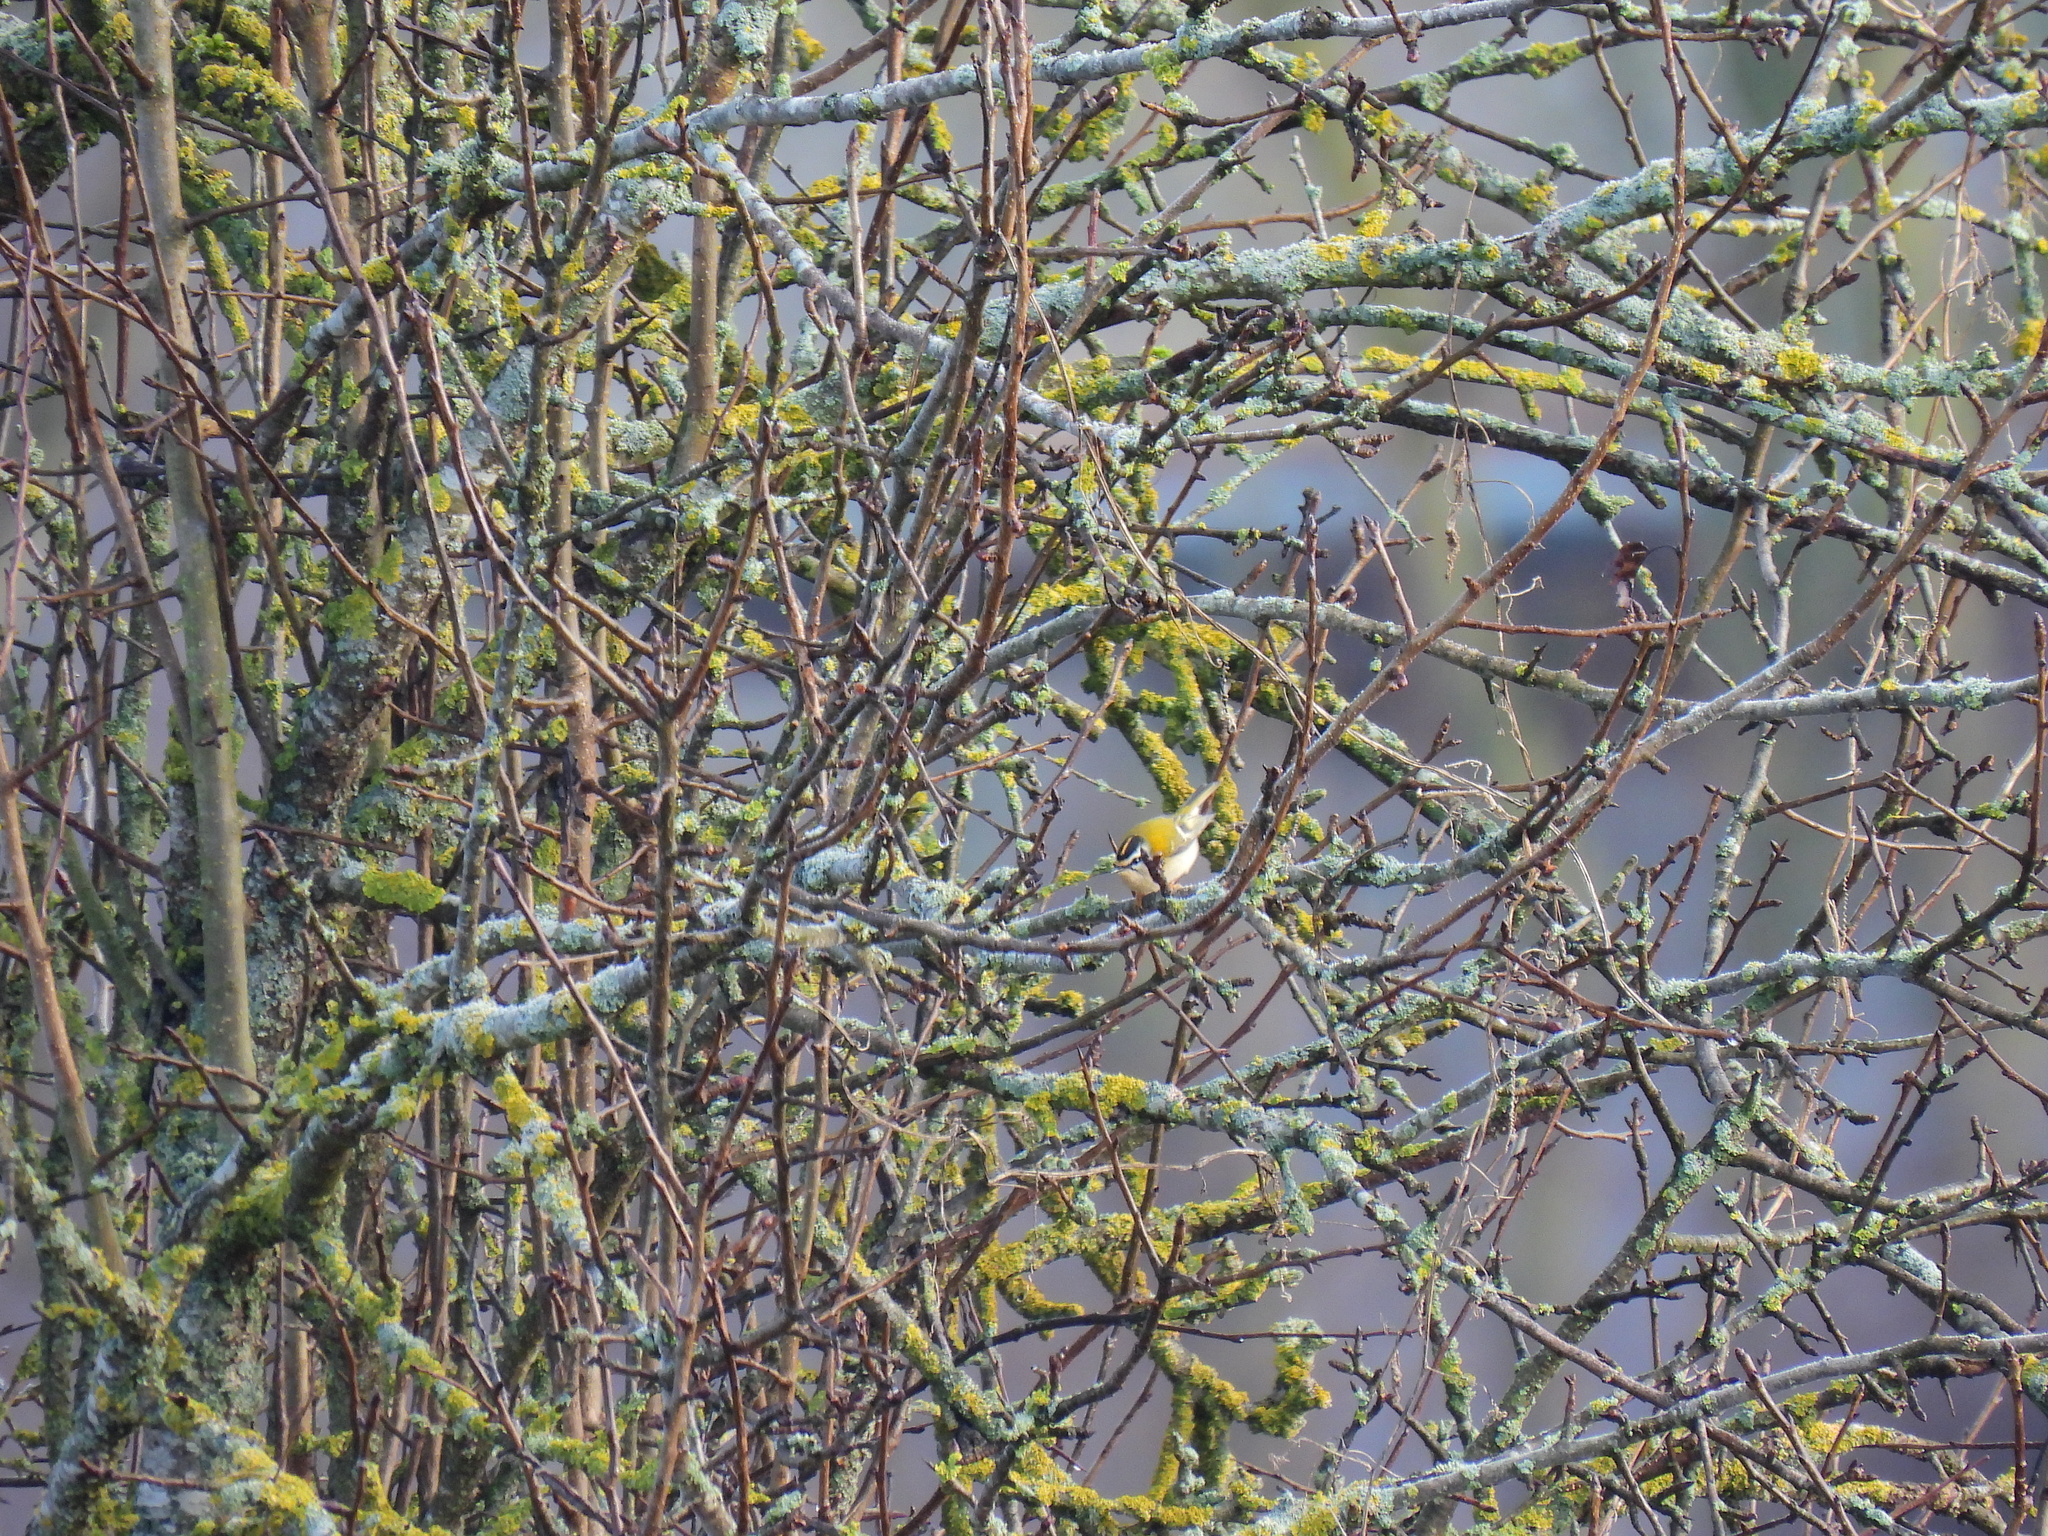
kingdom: Animalia
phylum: Chordata
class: Aves
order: Passeriformes
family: Regulidae
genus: Regulus
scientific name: Regulus ignicapilla
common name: Firecrest
